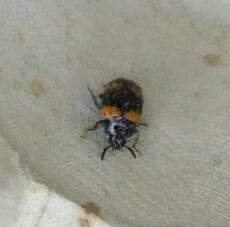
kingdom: Animalia
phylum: Arthropoda
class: Insecta
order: Coleoptera
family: Tenebrionidae
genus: Diaperis
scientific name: Diaperis boleti
